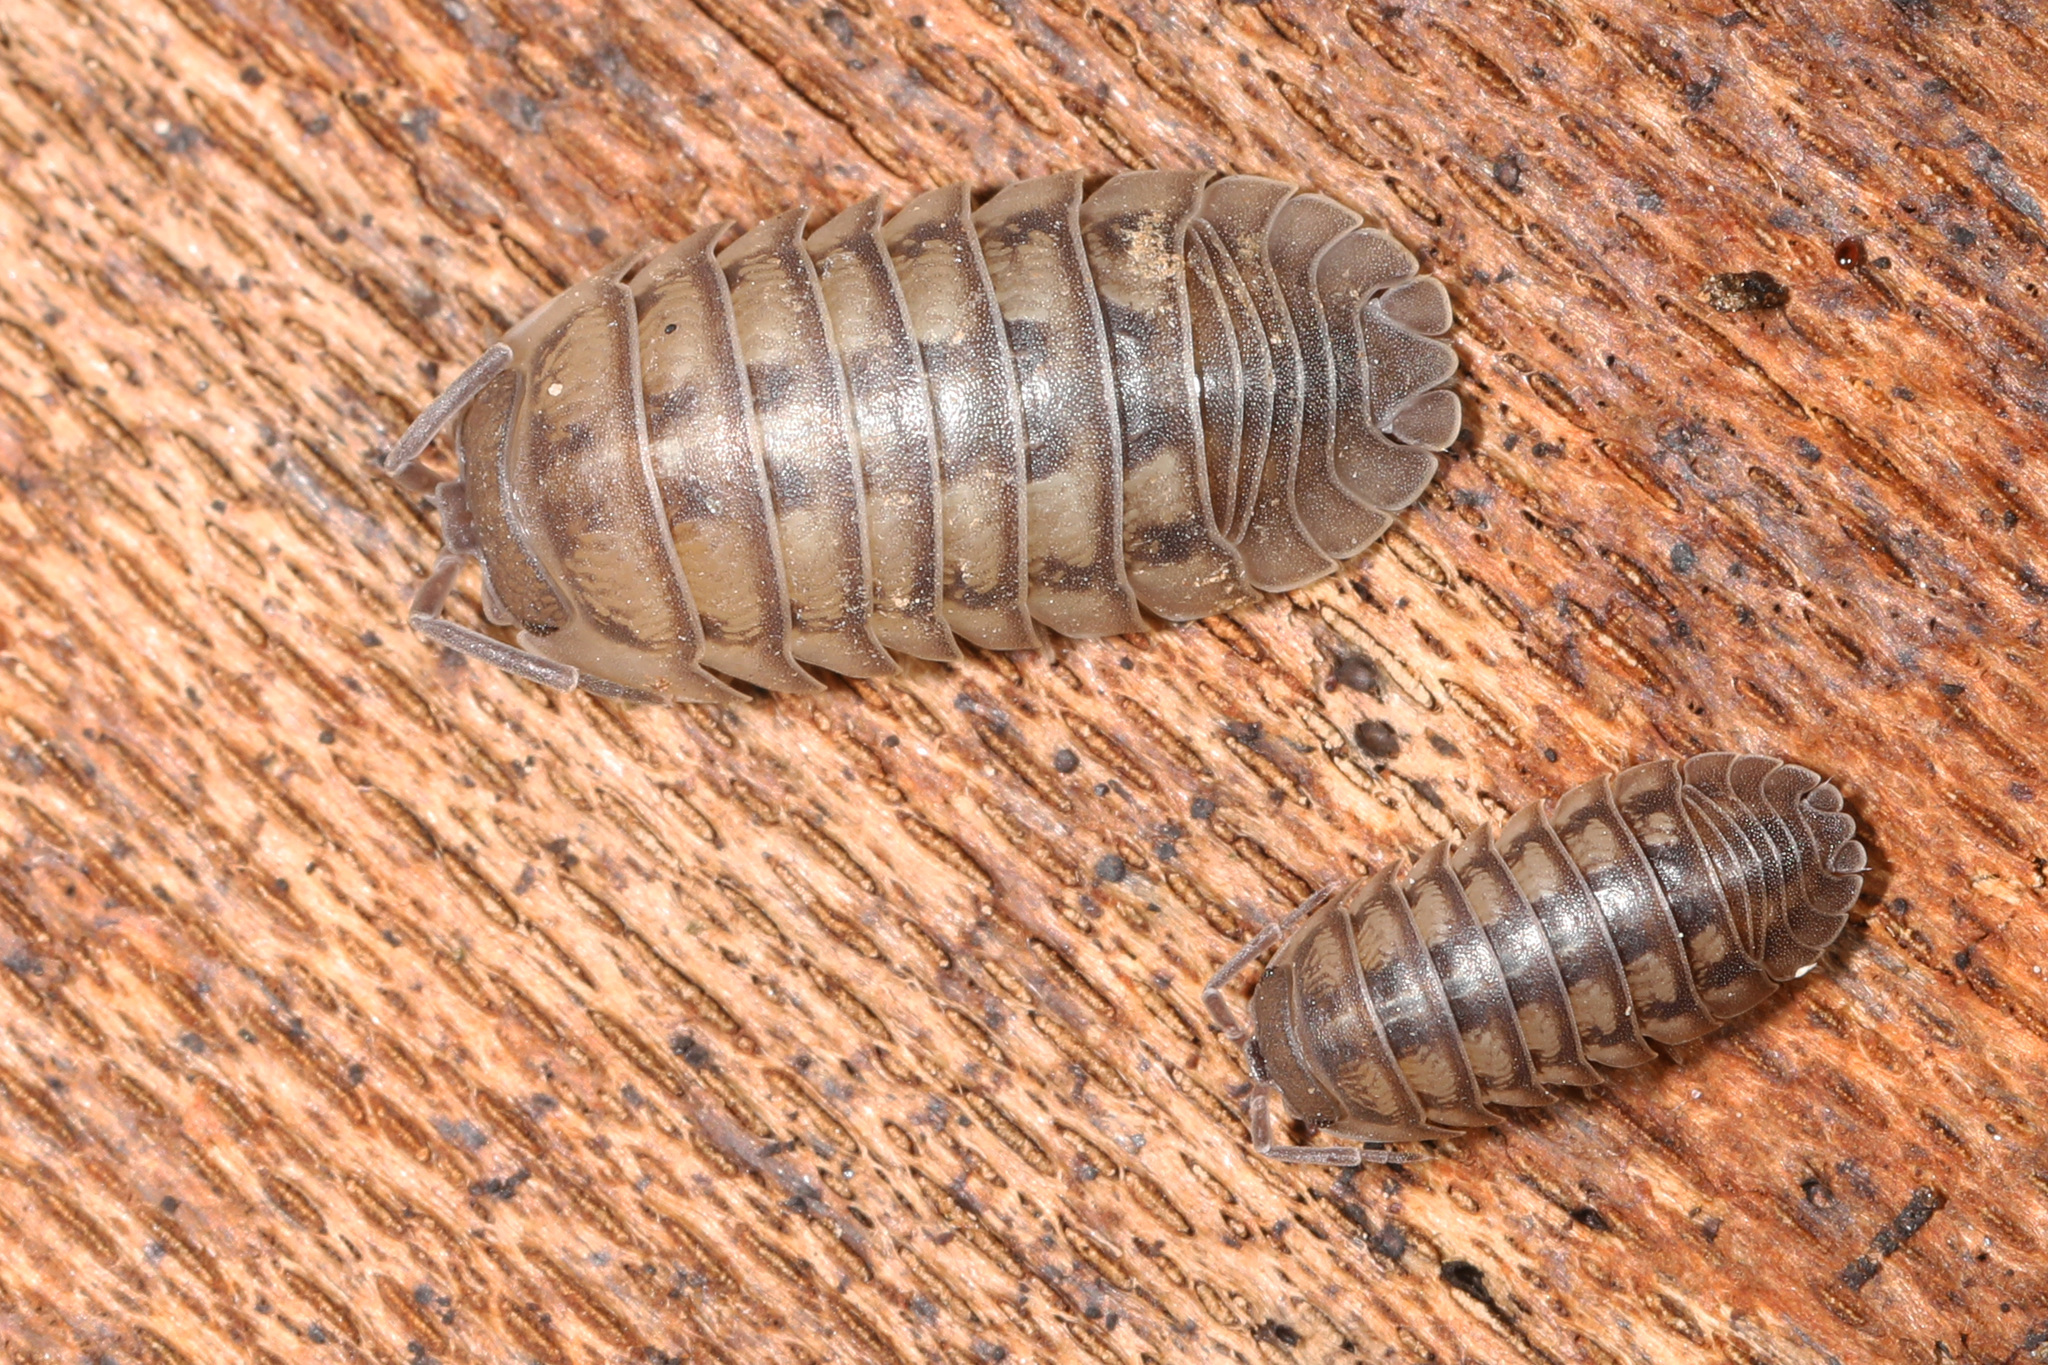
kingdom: Animalia
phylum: Arthropoda
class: Malacostraca
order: Isopoda
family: Armadillidiidae
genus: Armadillidium
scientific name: Armadillidium nasatum
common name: Isopod
